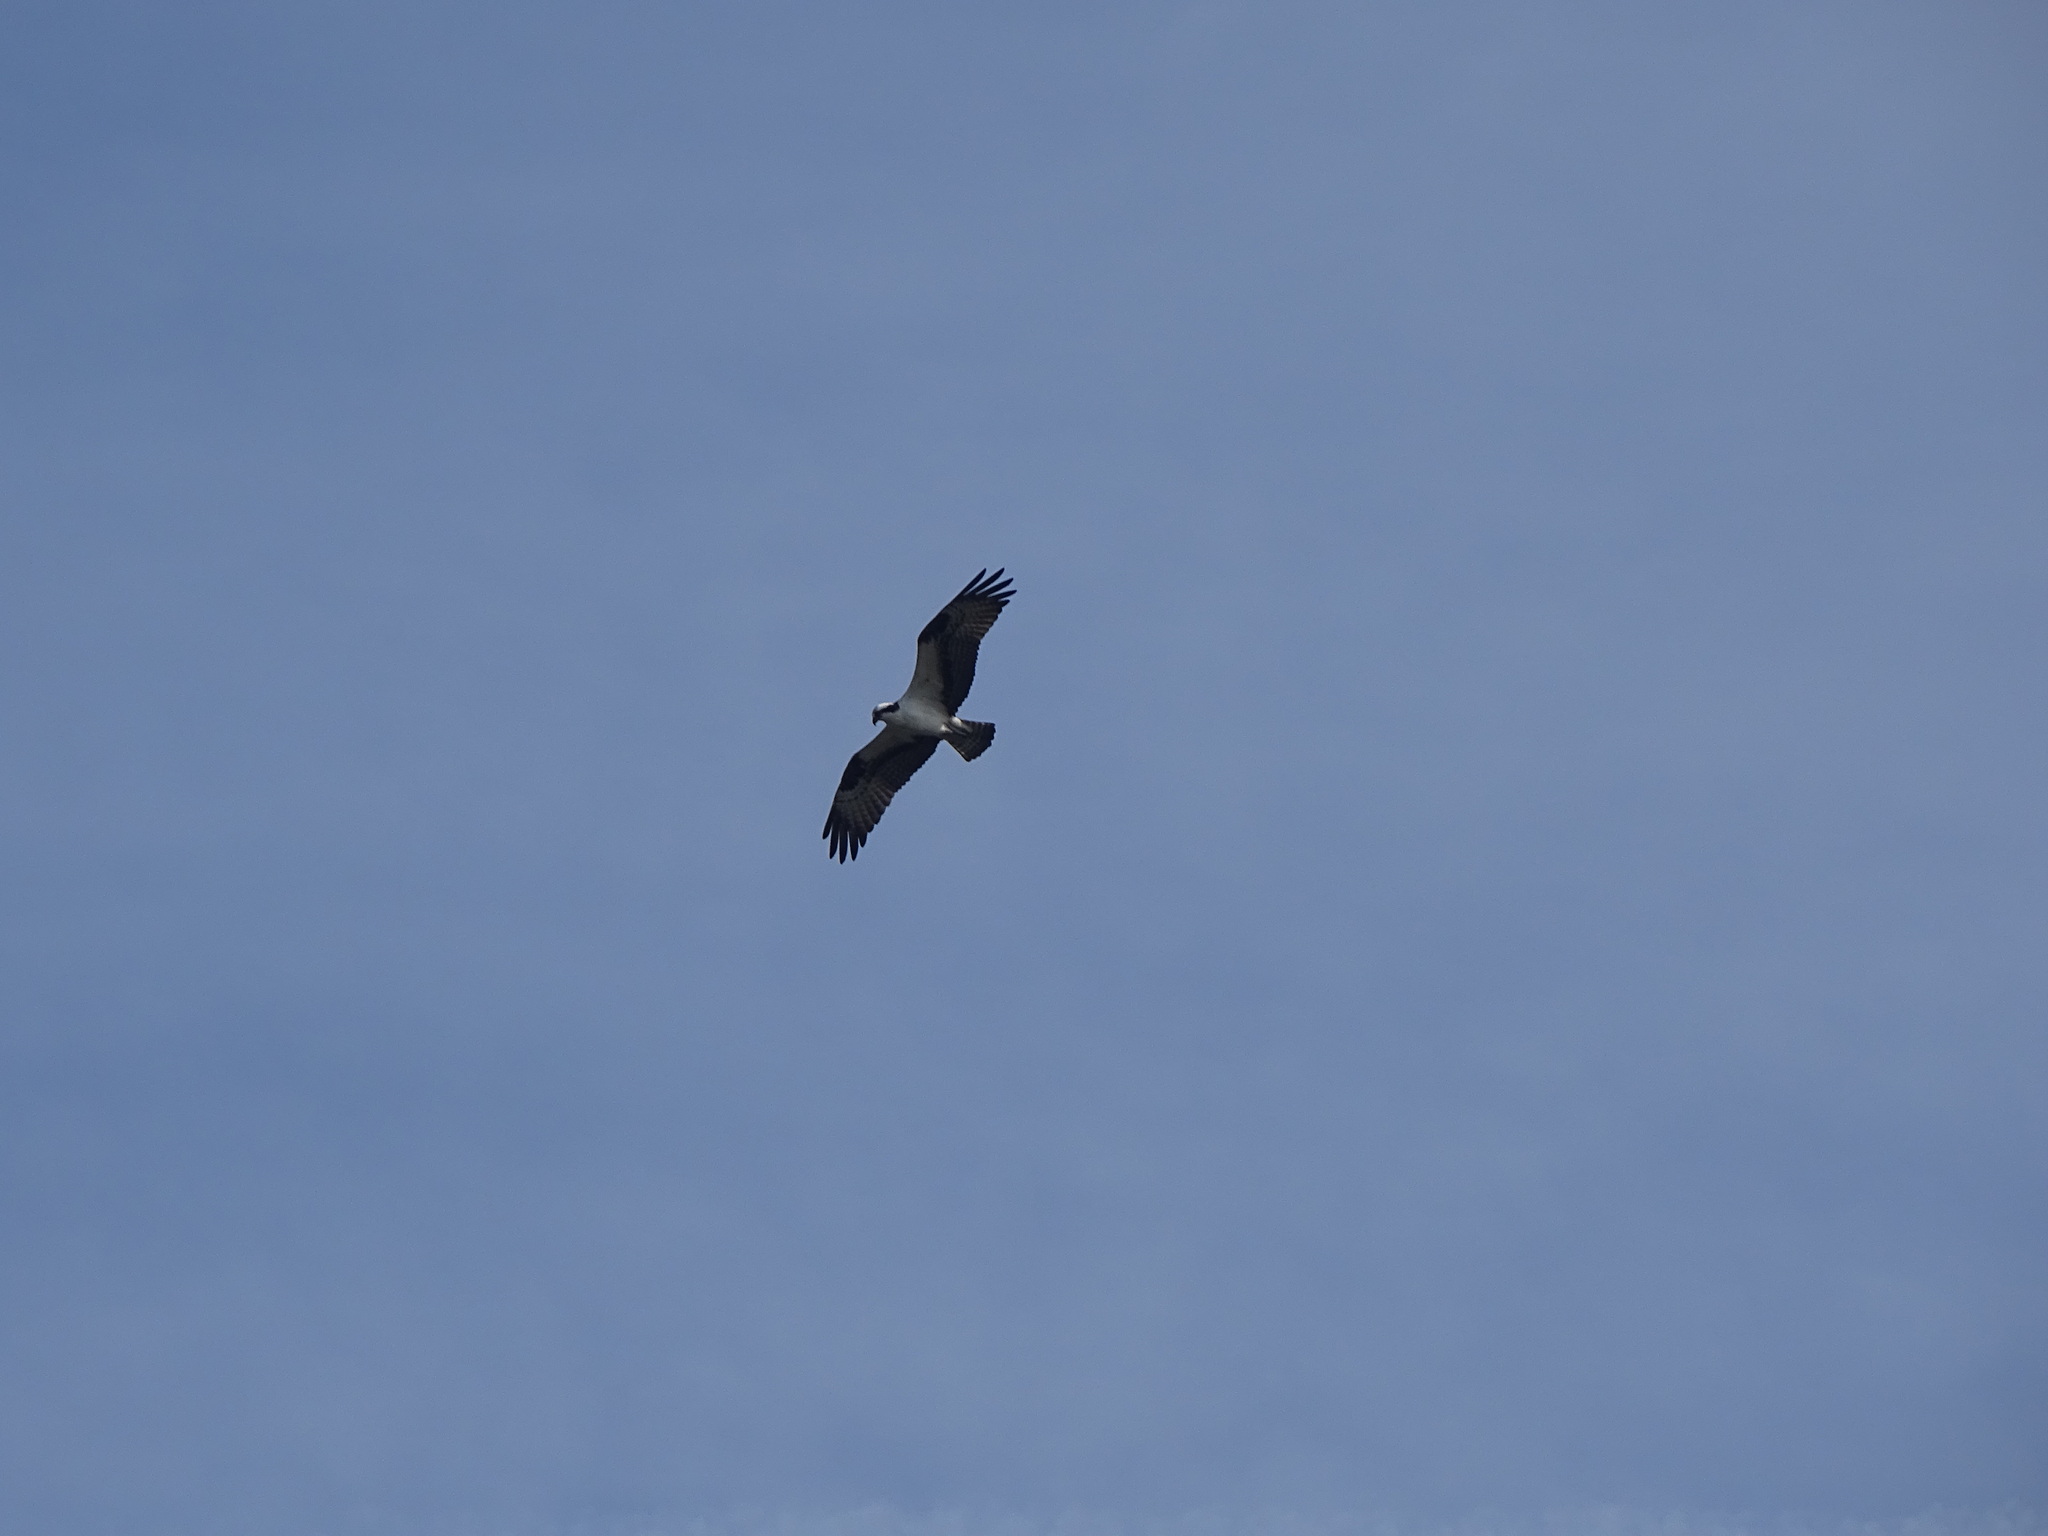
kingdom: Animalia
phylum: Chordata
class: Aves
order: Accipitriformes
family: Pandionidae
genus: Pandion
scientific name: Pandion haliaetus
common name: Osprey
